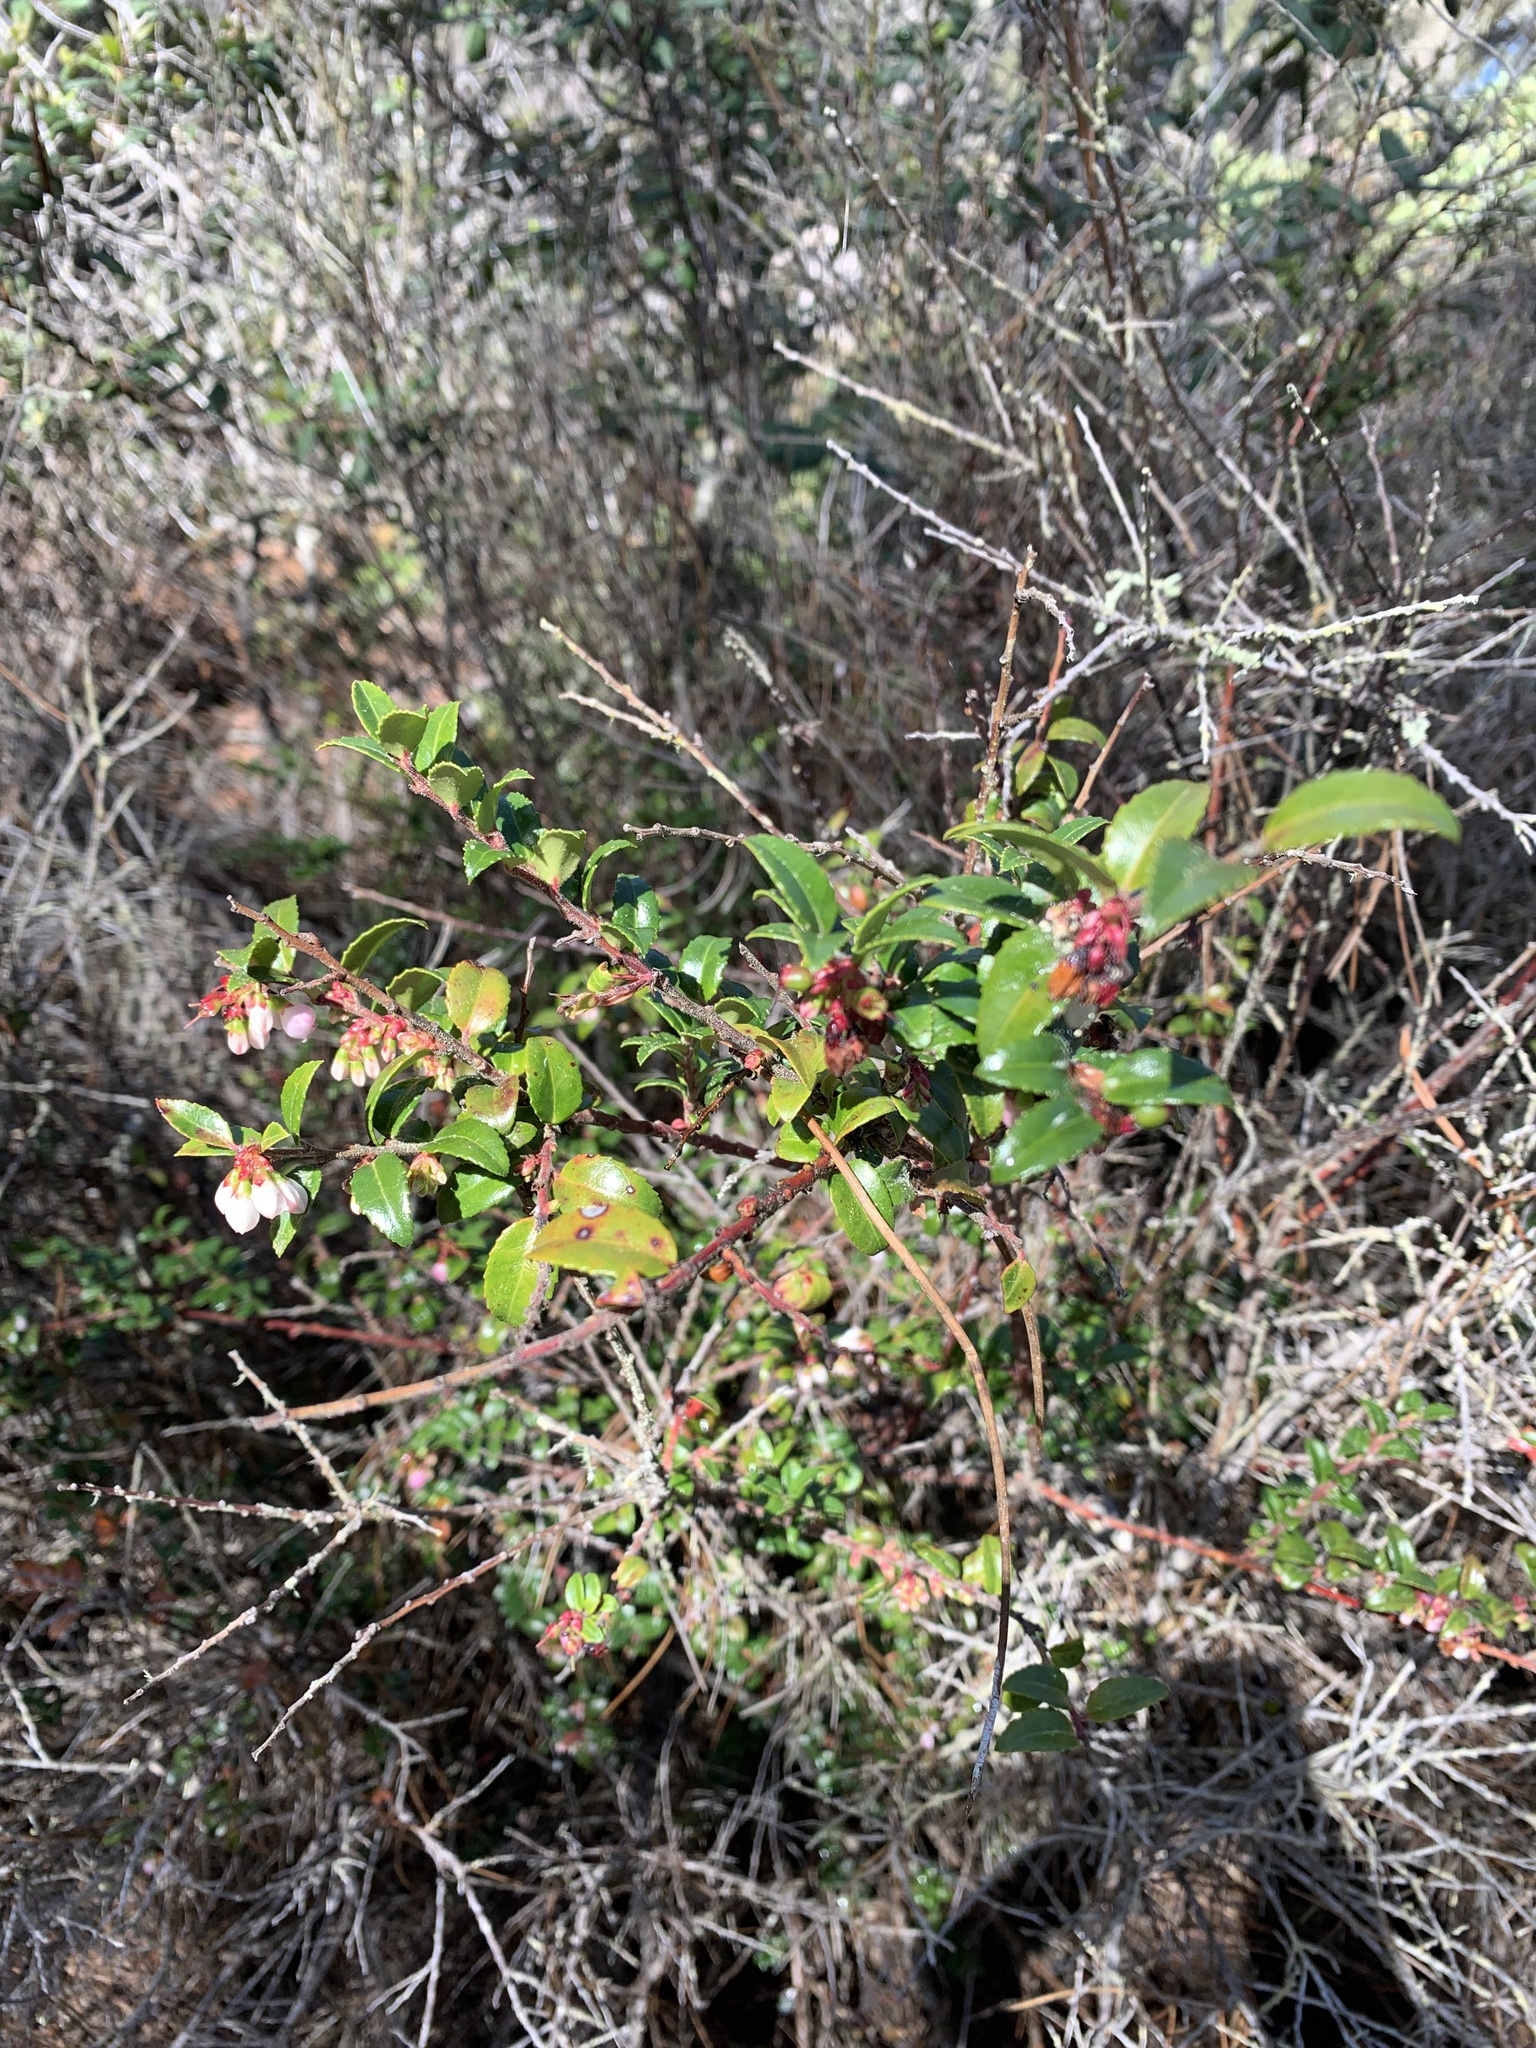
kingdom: Plantae
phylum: Tracheophyta
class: Magnoliopsida
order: Ericales
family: Ericaceae
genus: Vaccinium
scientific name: Vaccinium ovatum
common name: California-huckleberry
